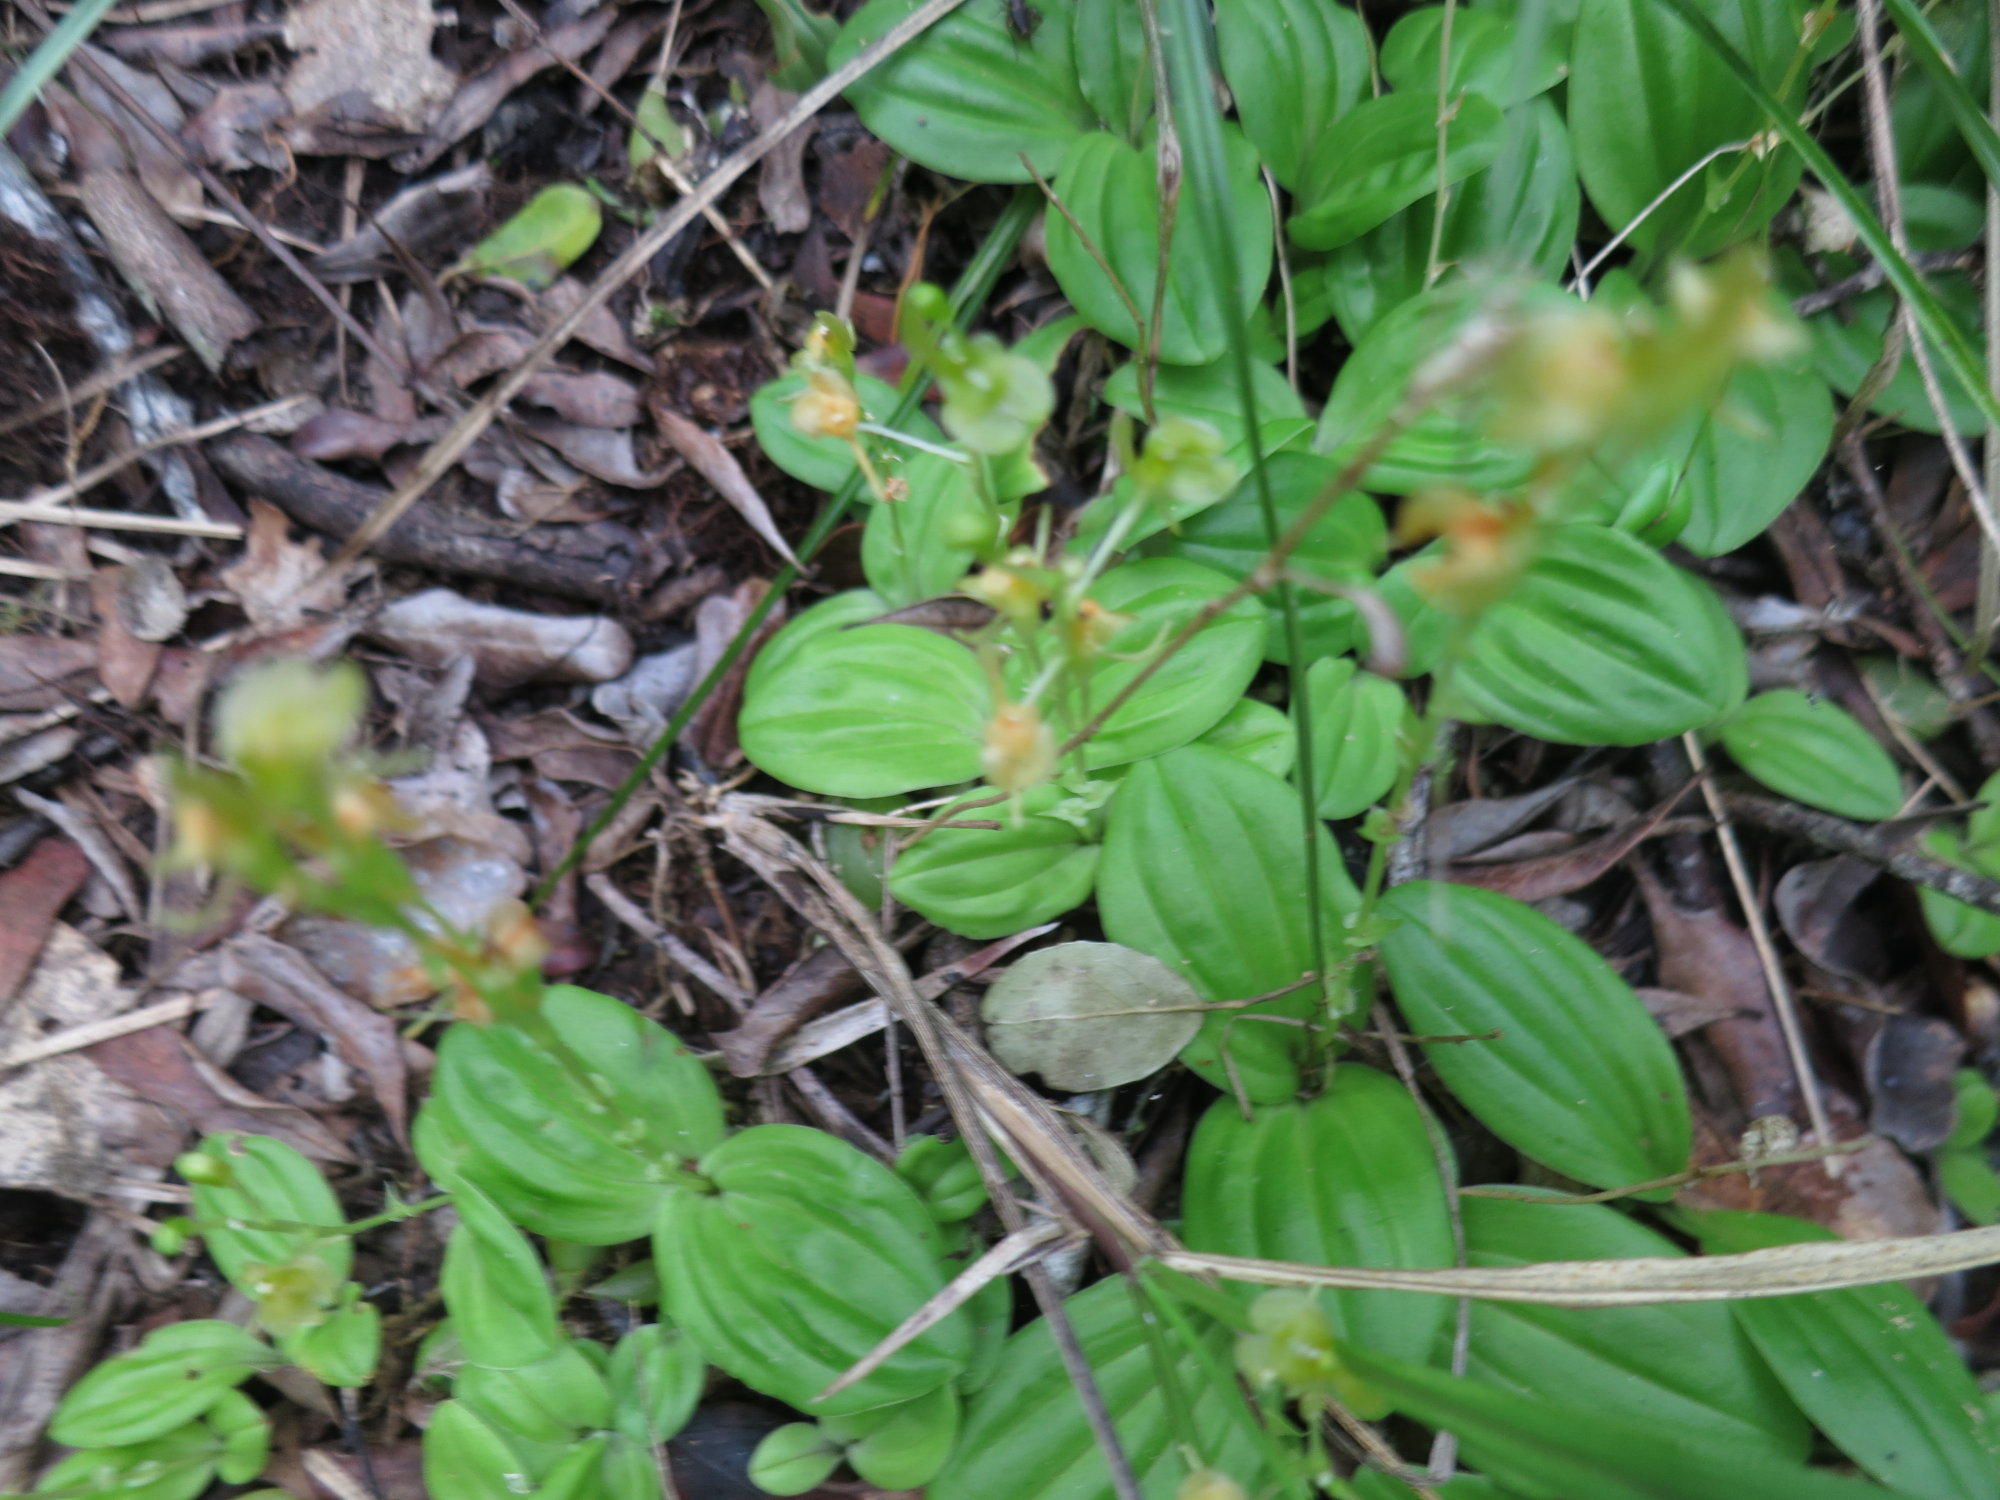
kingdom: Plantae
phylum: Tracheophyta
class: Liliopsida
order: Asparagales
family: Orchidaceae
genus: Liparis
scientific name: Liparis remota
